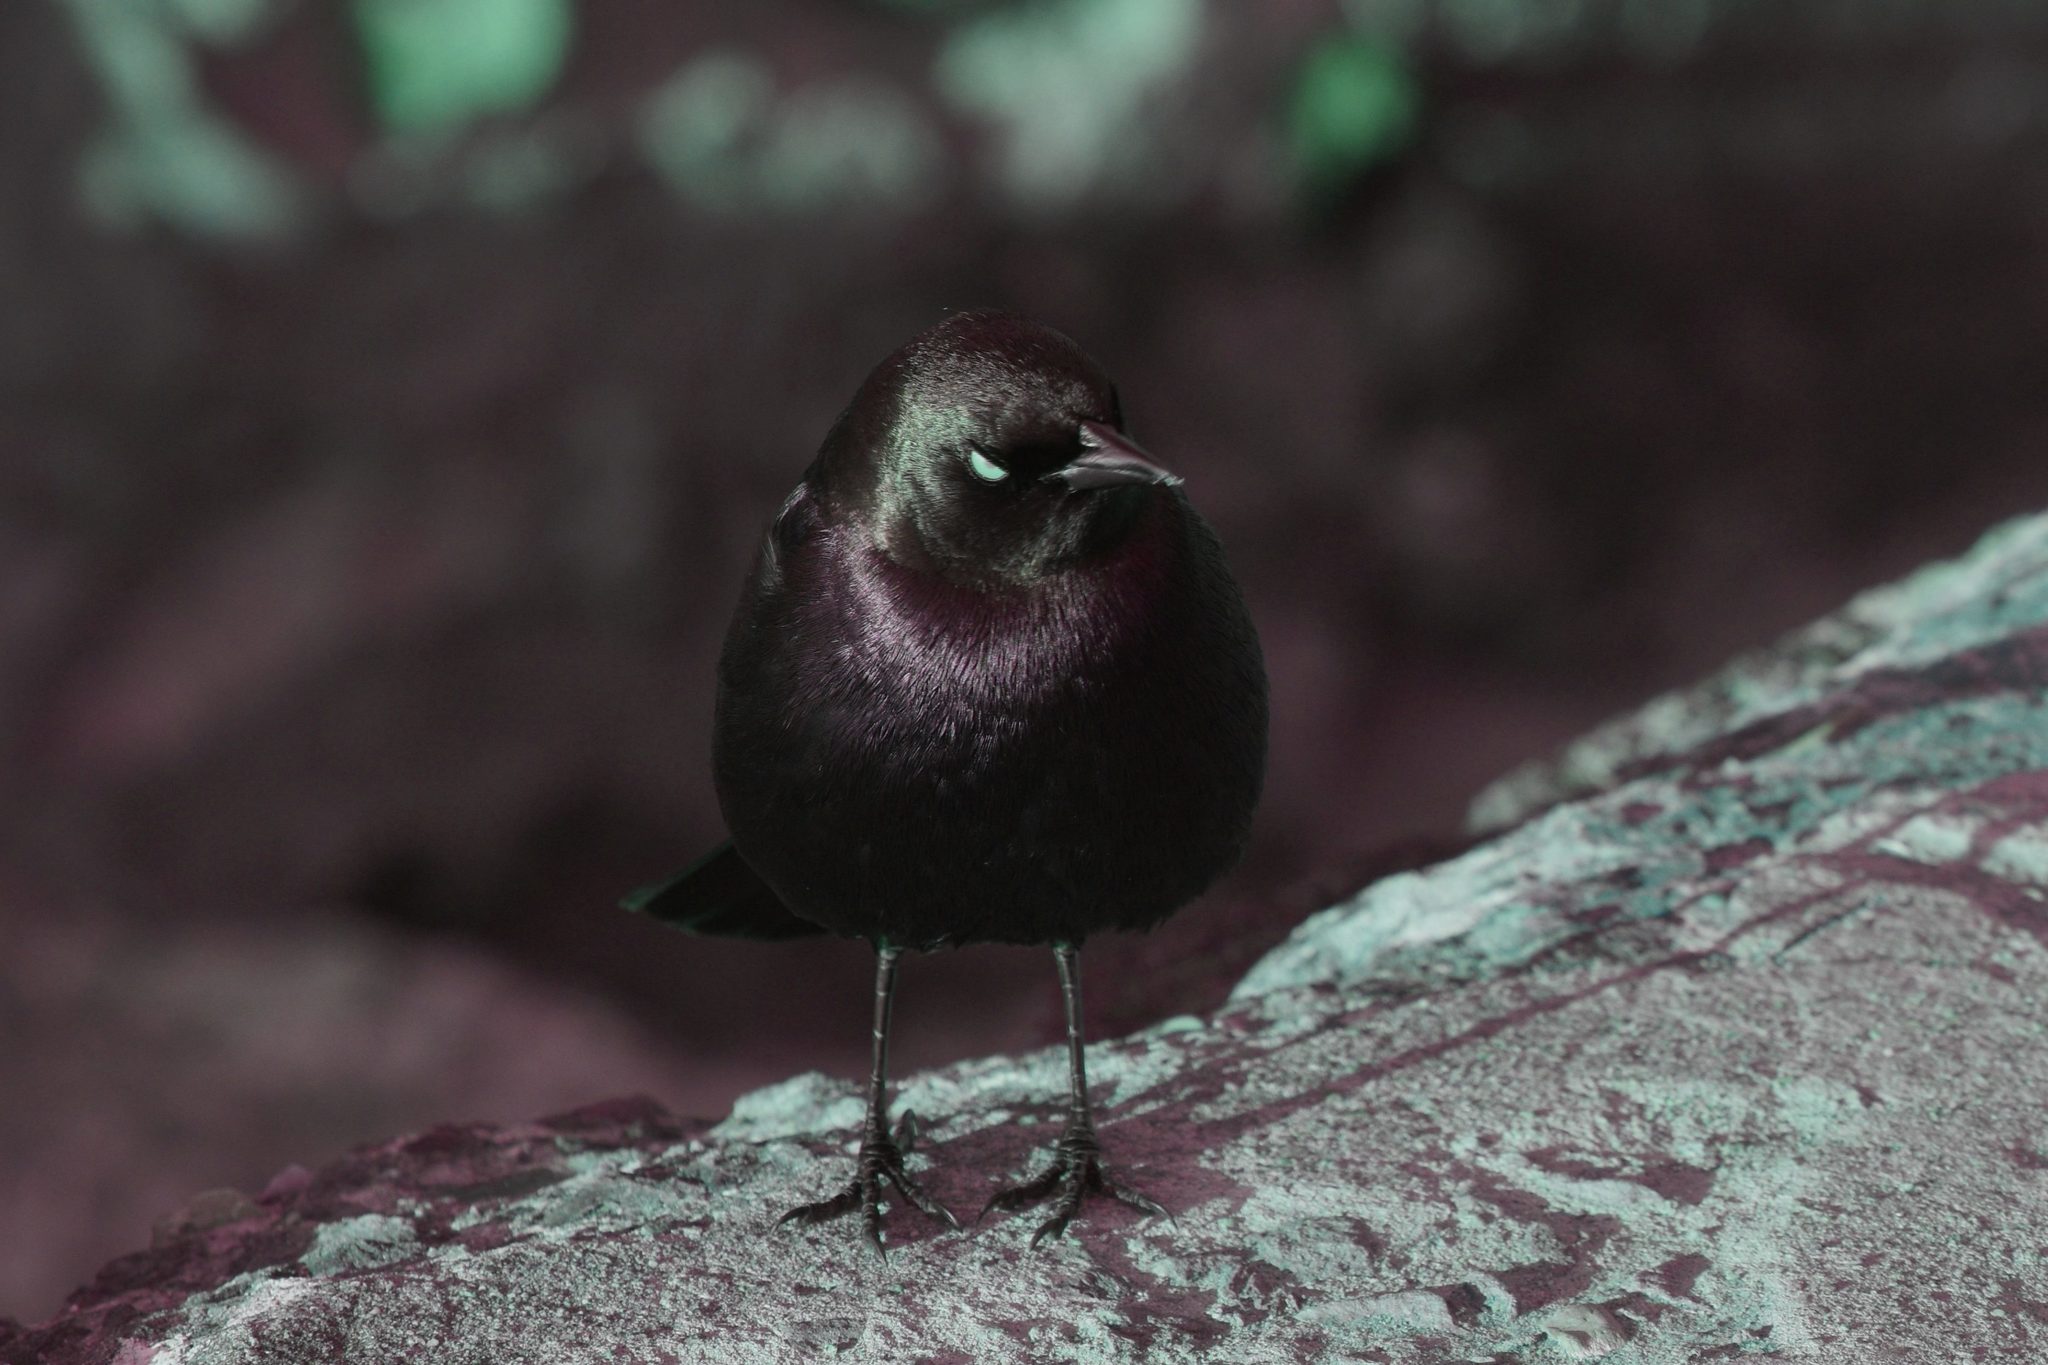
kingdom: Animalia
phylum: Chordata
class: Aves
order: Passeriformes
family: Icteridae
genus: Euphagus
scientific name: Euphagus cyanocephalus
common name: Brewer's blackbird
